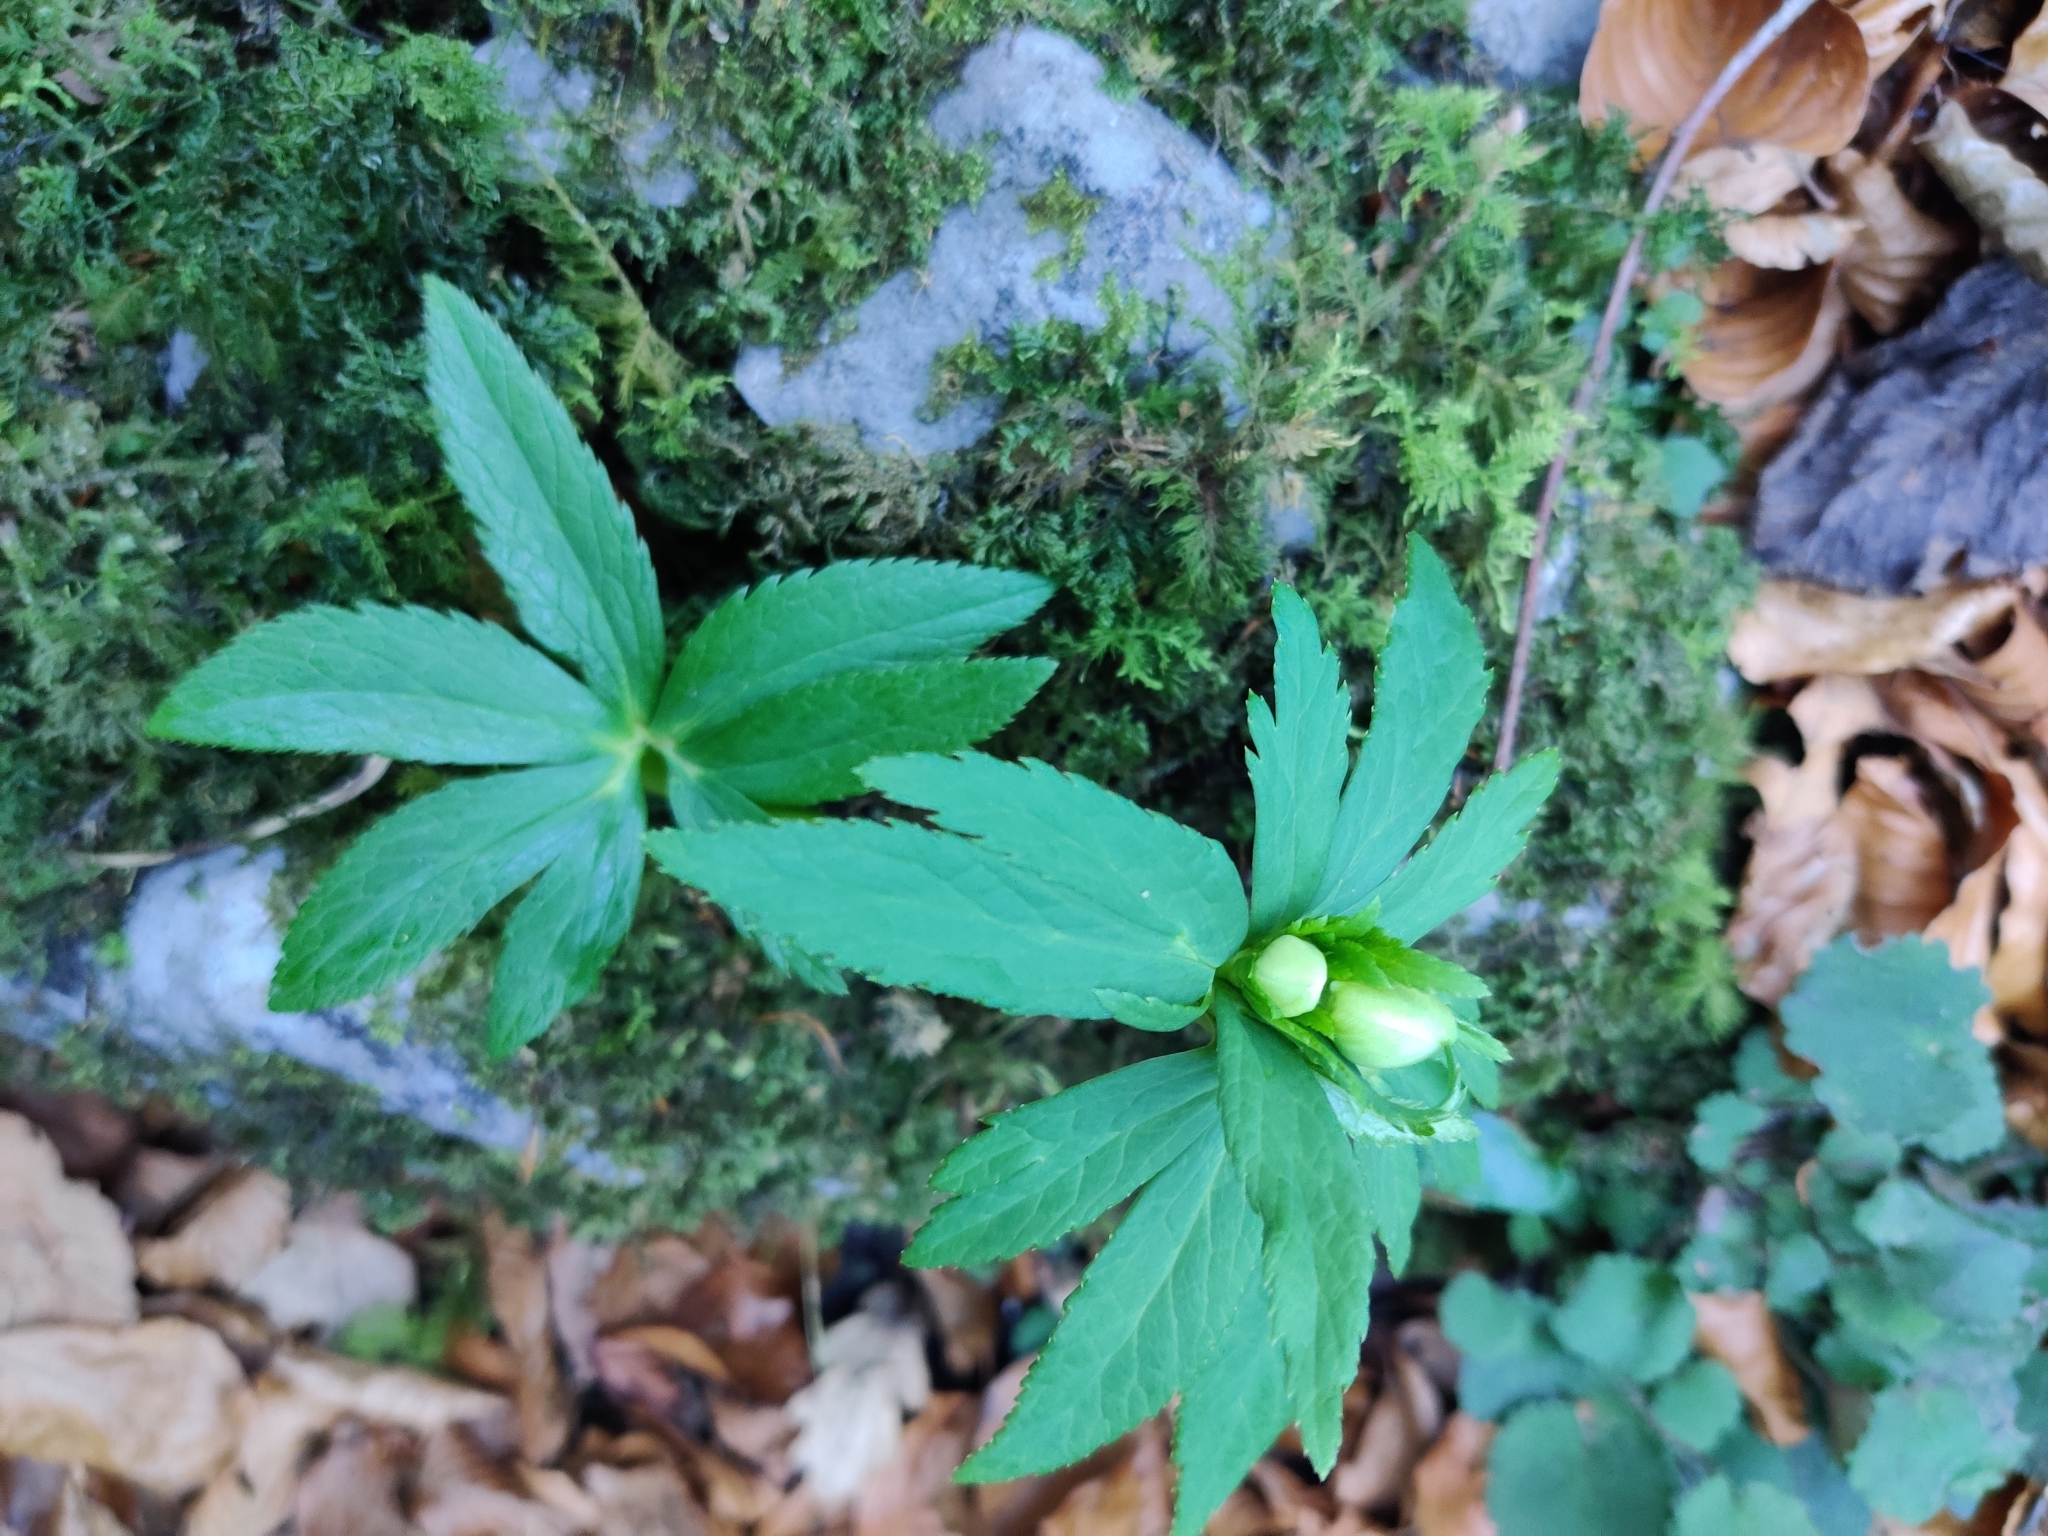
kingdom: Plantae
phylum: Tracheophyta
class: Magnoliopsida
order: Ranunculales
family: Ranunculaceae
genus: Helleborus
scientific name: Helleborus viridis
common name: Green hellebore
